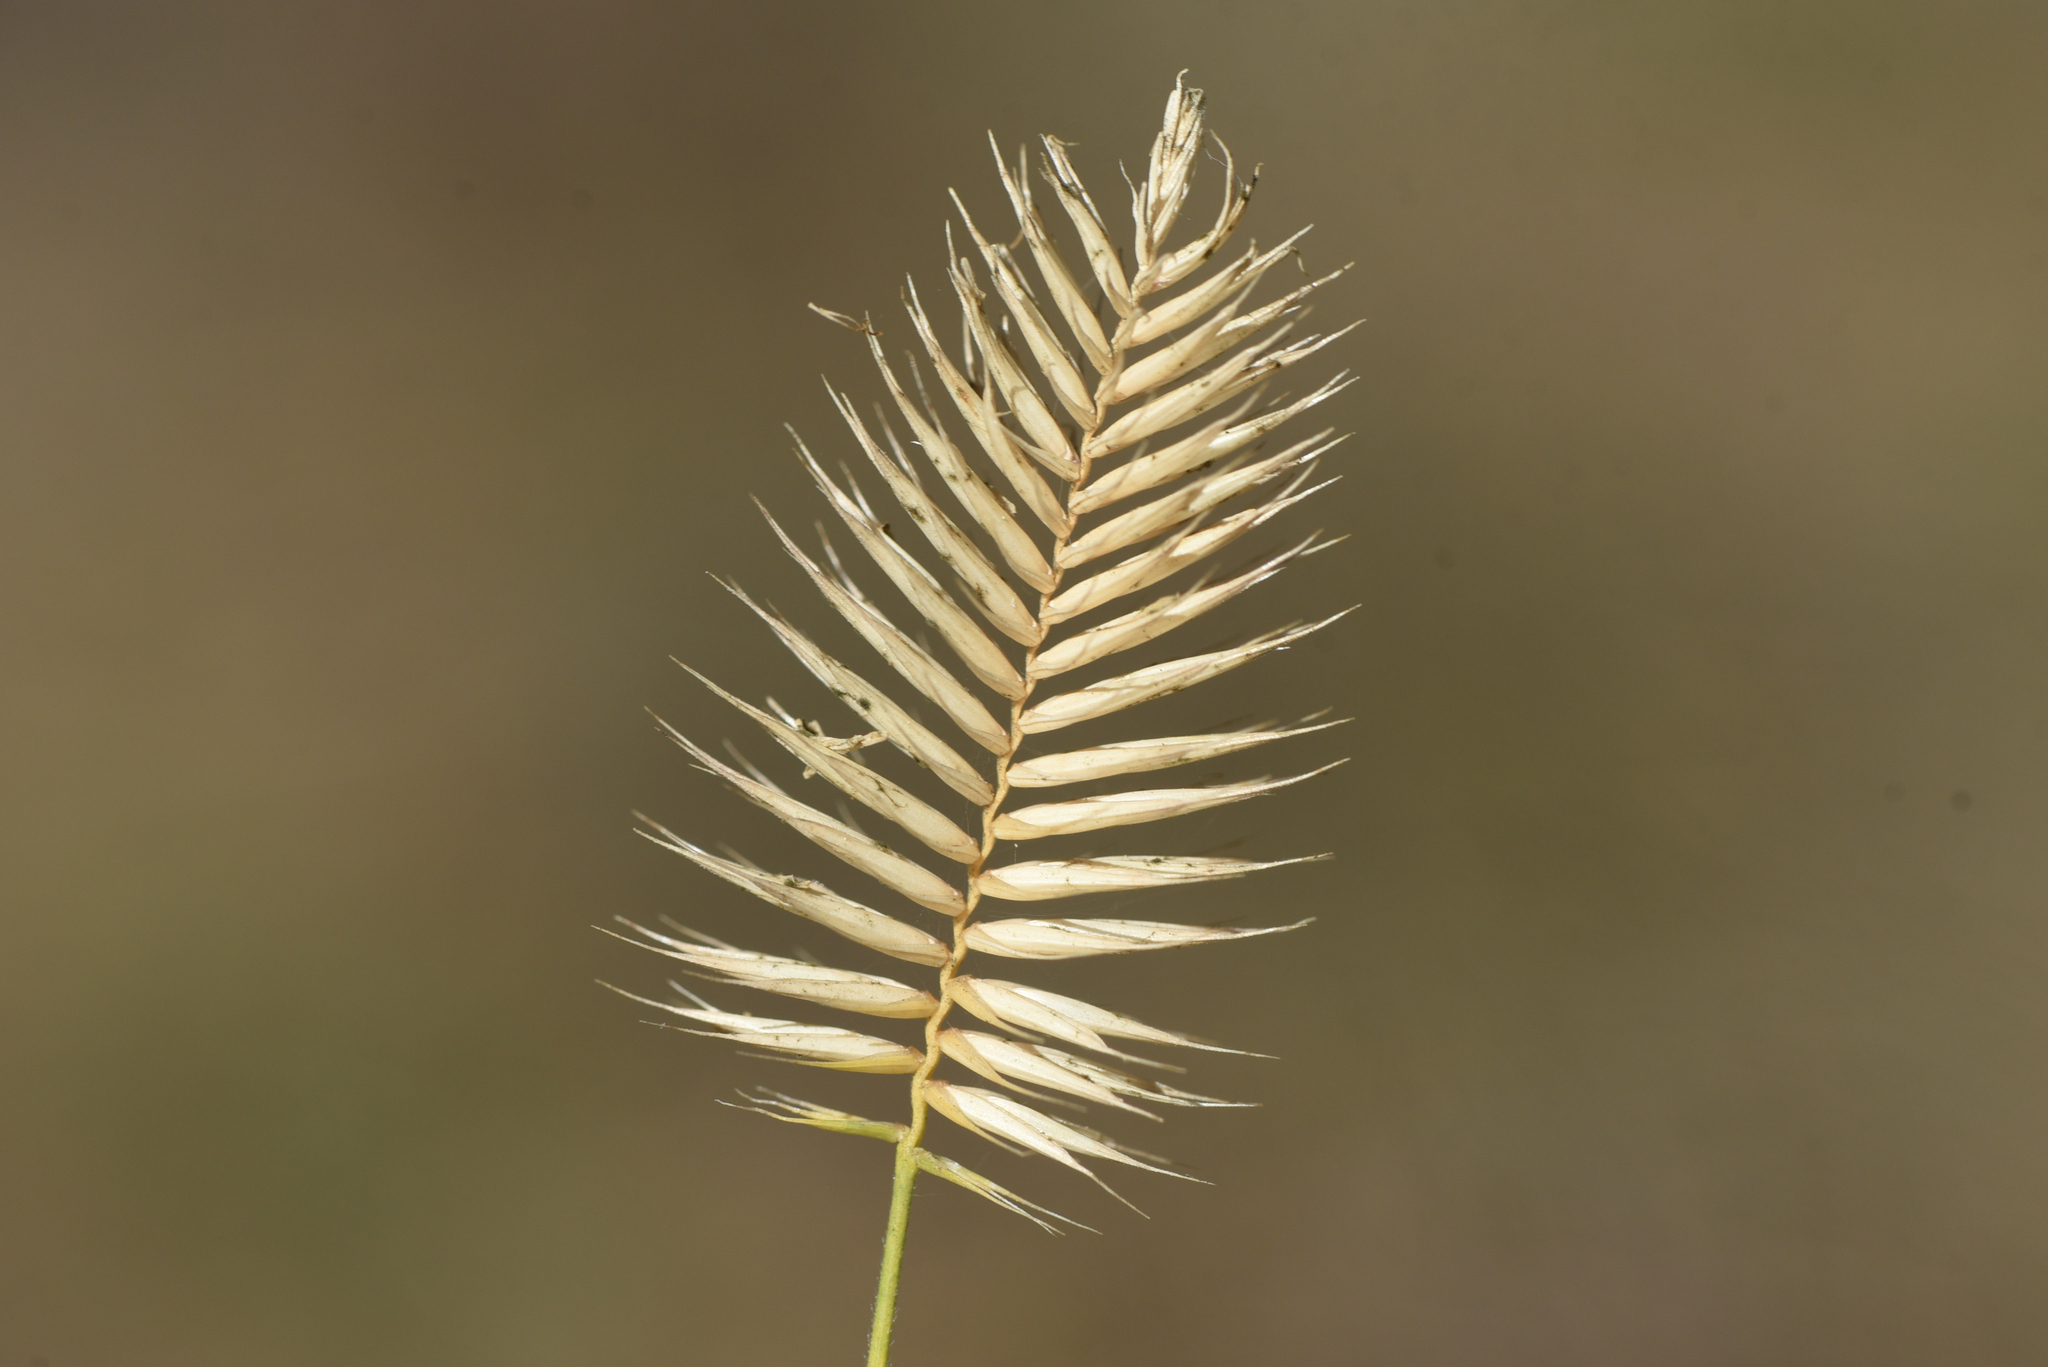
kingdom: Plantae
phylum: Tracheophyta
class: Liliopsida
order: Poales
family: Poaceae
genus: Agropyron
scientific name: Agropyron cristatum
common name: Crested wheatgrass
